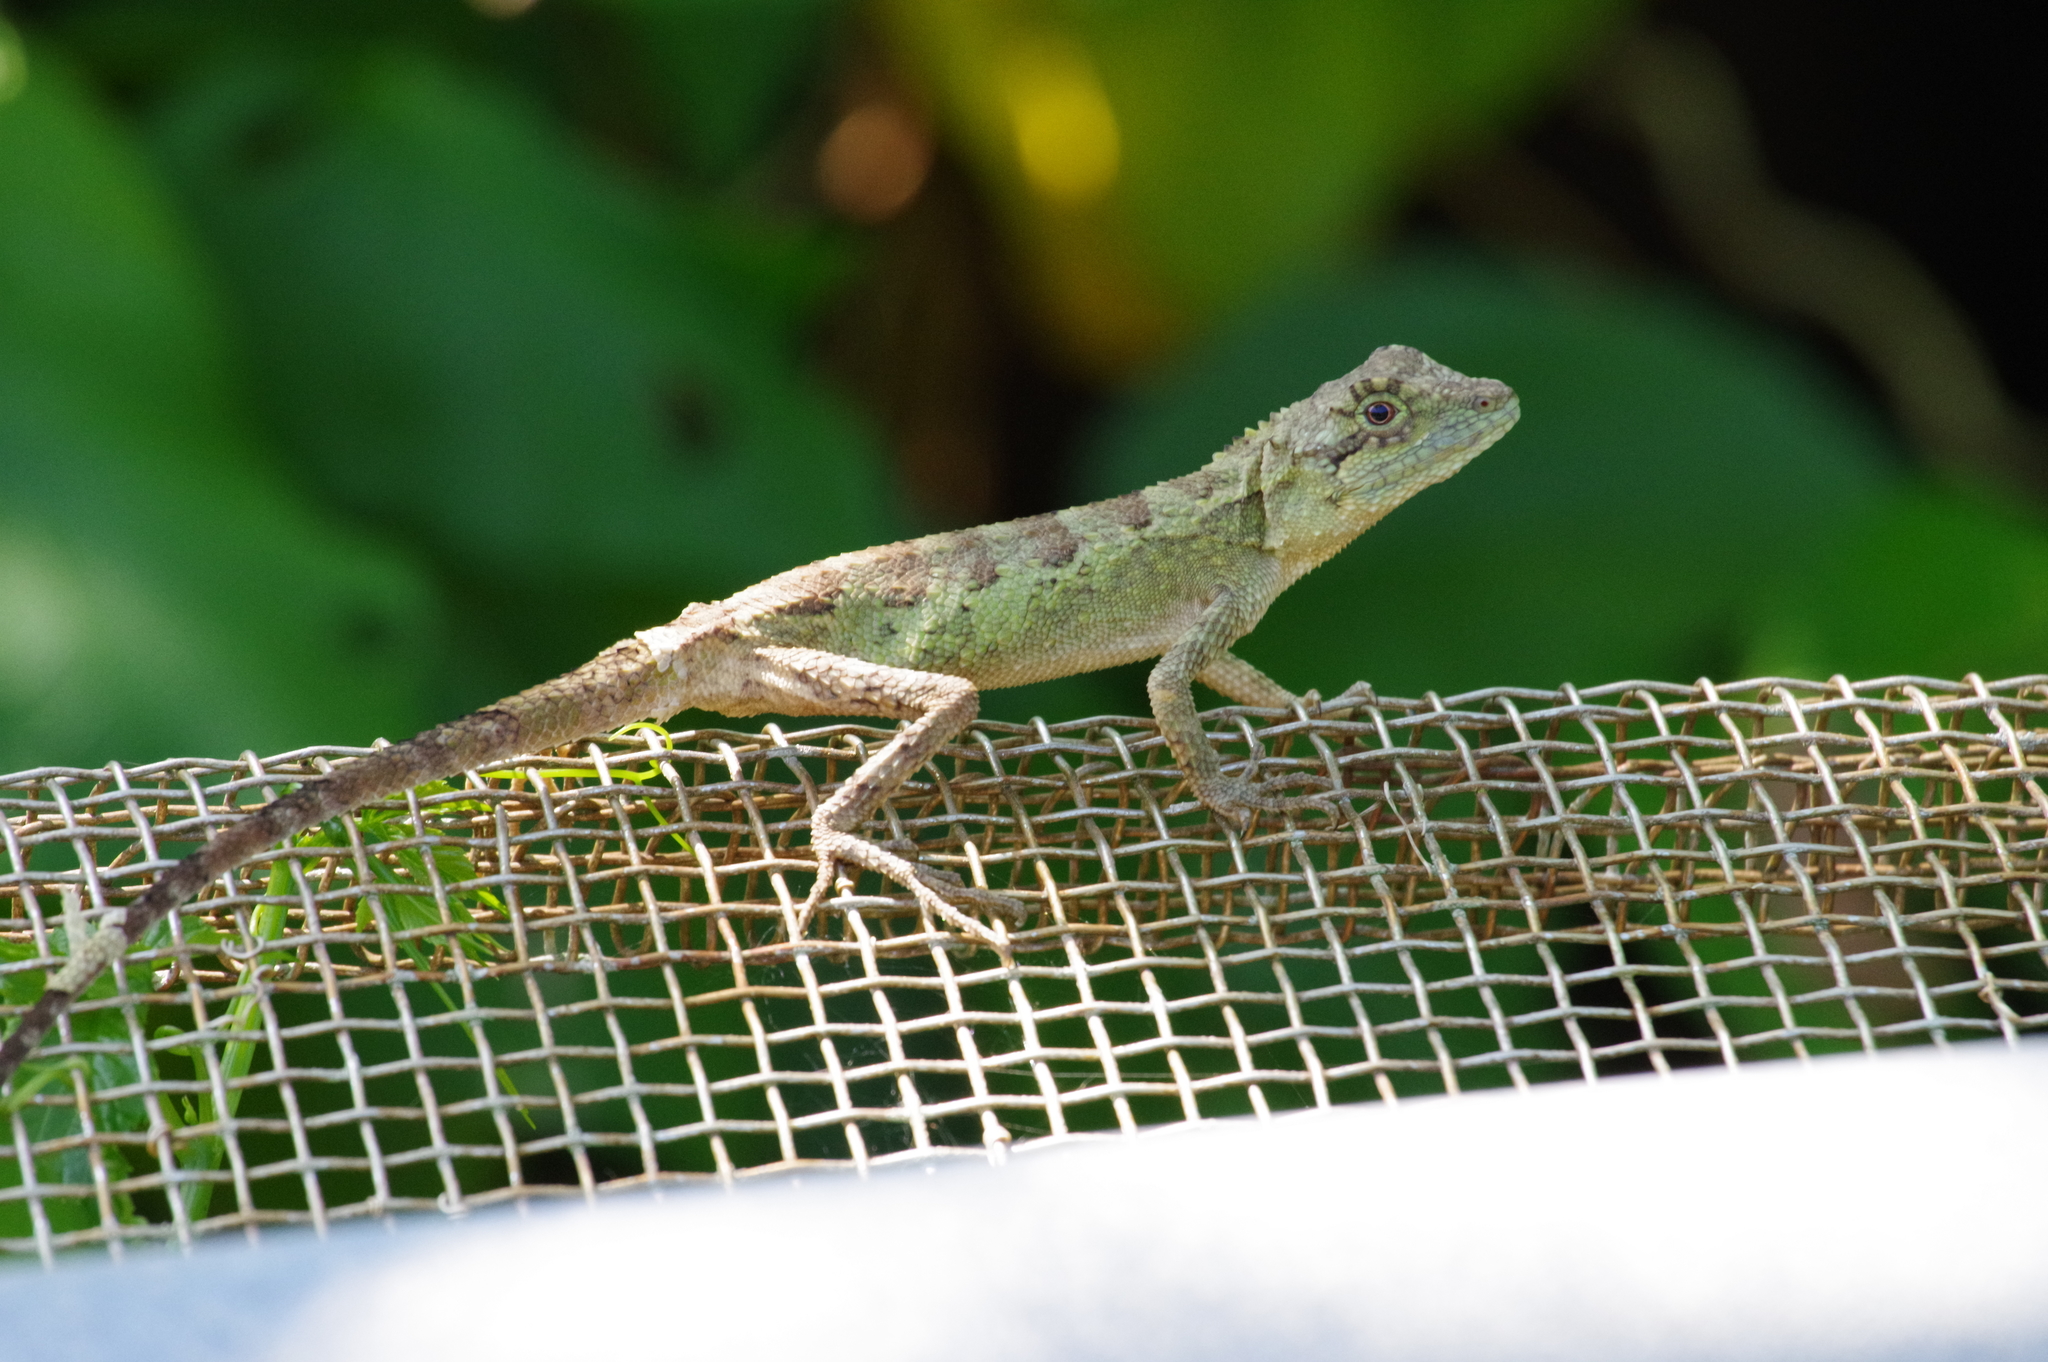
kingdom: Fungi
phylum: Basidiomycota
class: Agaricomycetes
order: Boletales
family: Diplocystidiaceae
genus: Diploderma
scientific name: Diploderma polygonatum
